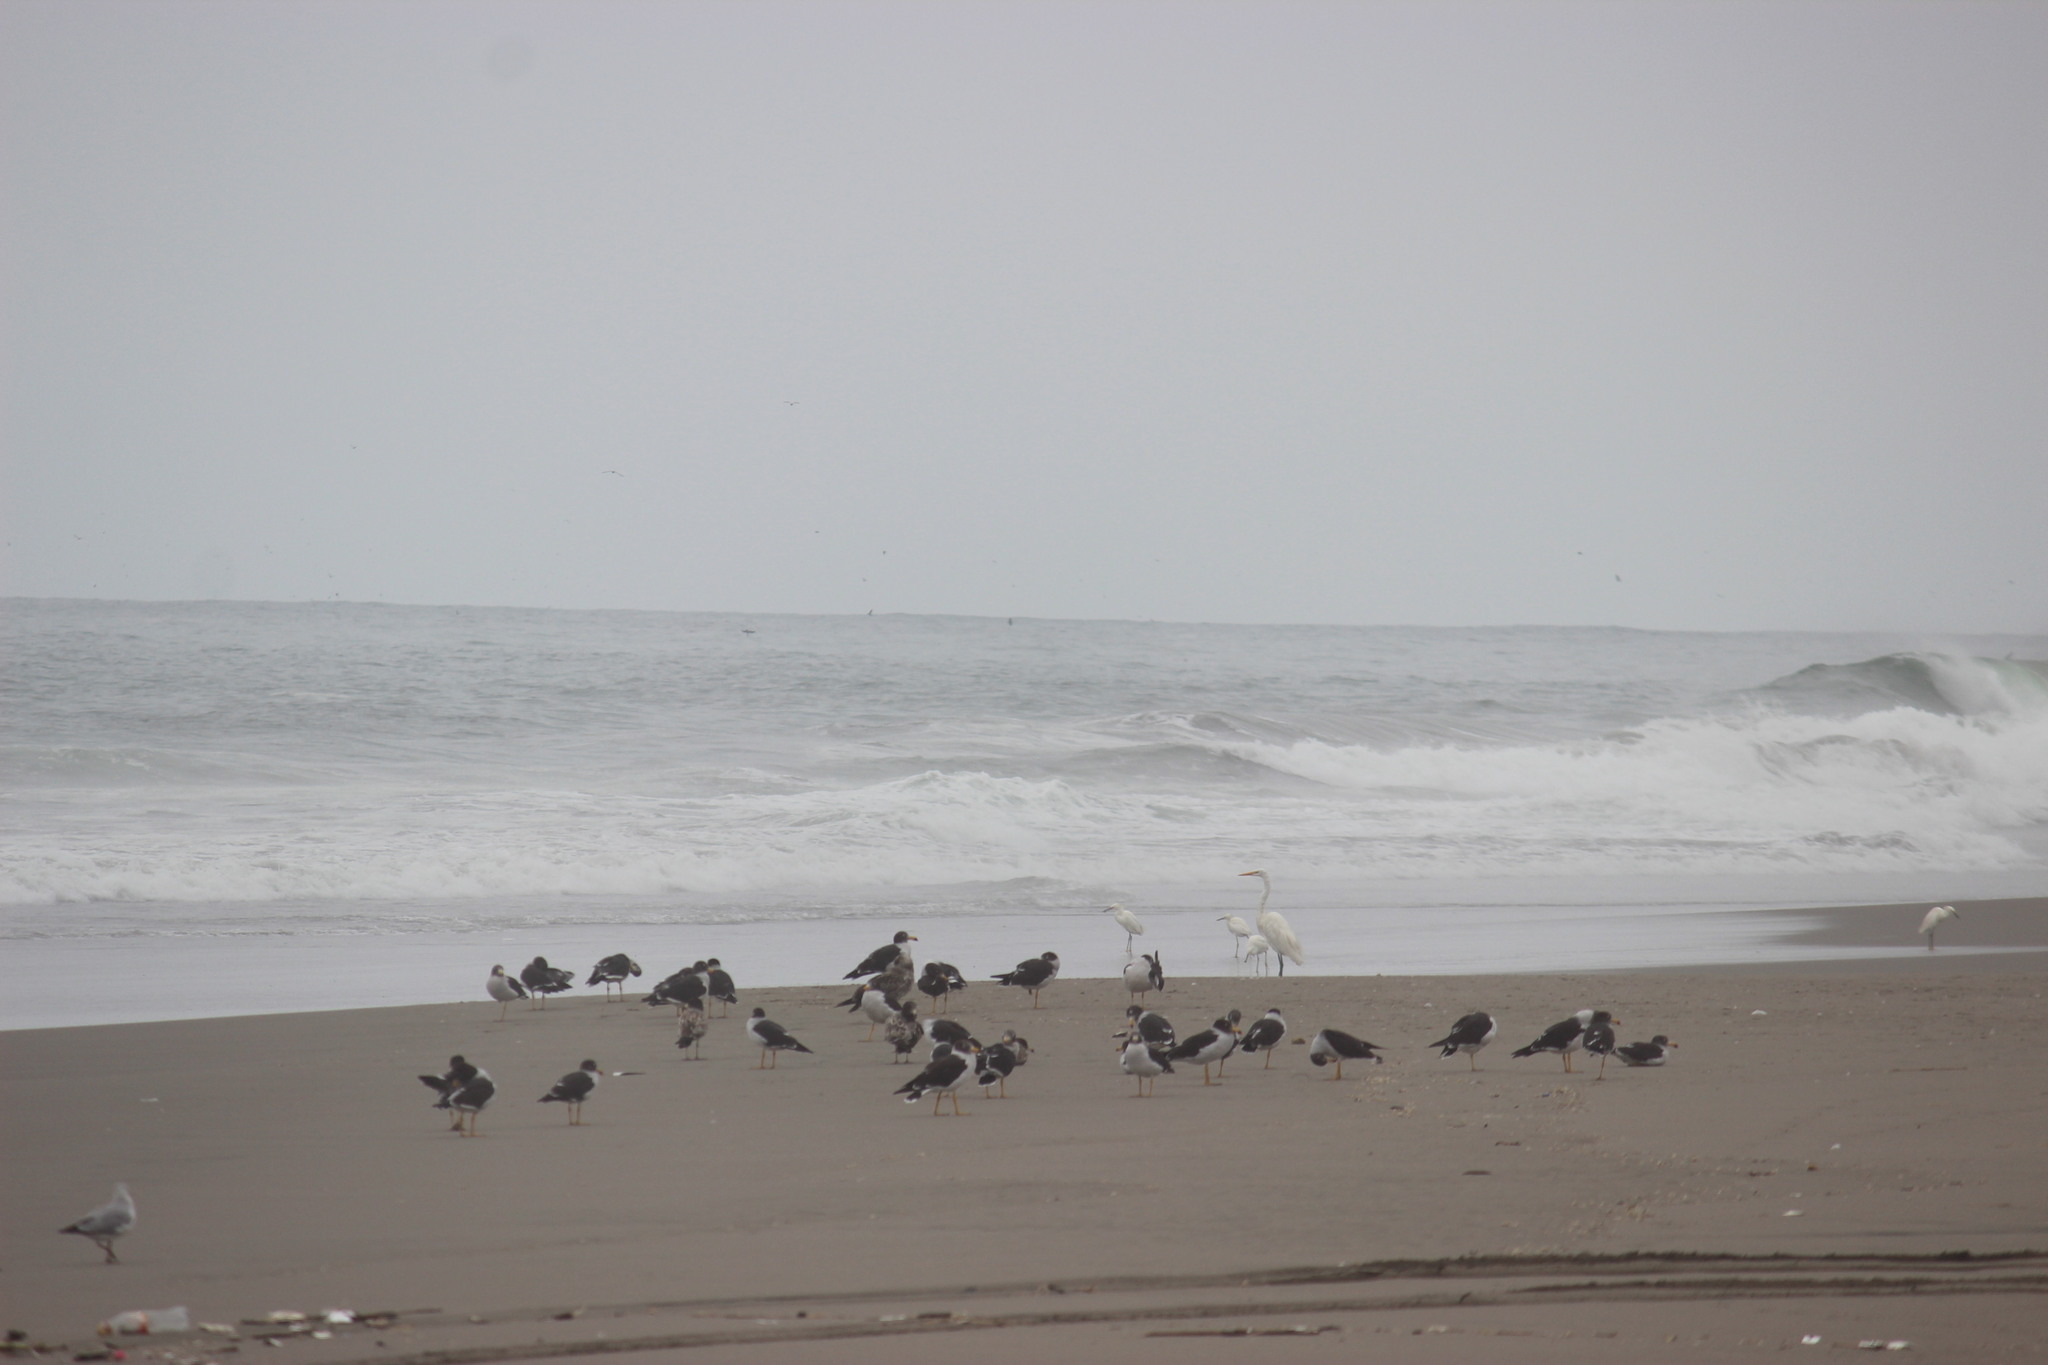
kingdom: Animalia
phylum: Chordata
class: Aves
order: Pelecaniformes
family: Ardeidae
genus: Ardea
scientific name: Ardea alba
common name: Great egret
